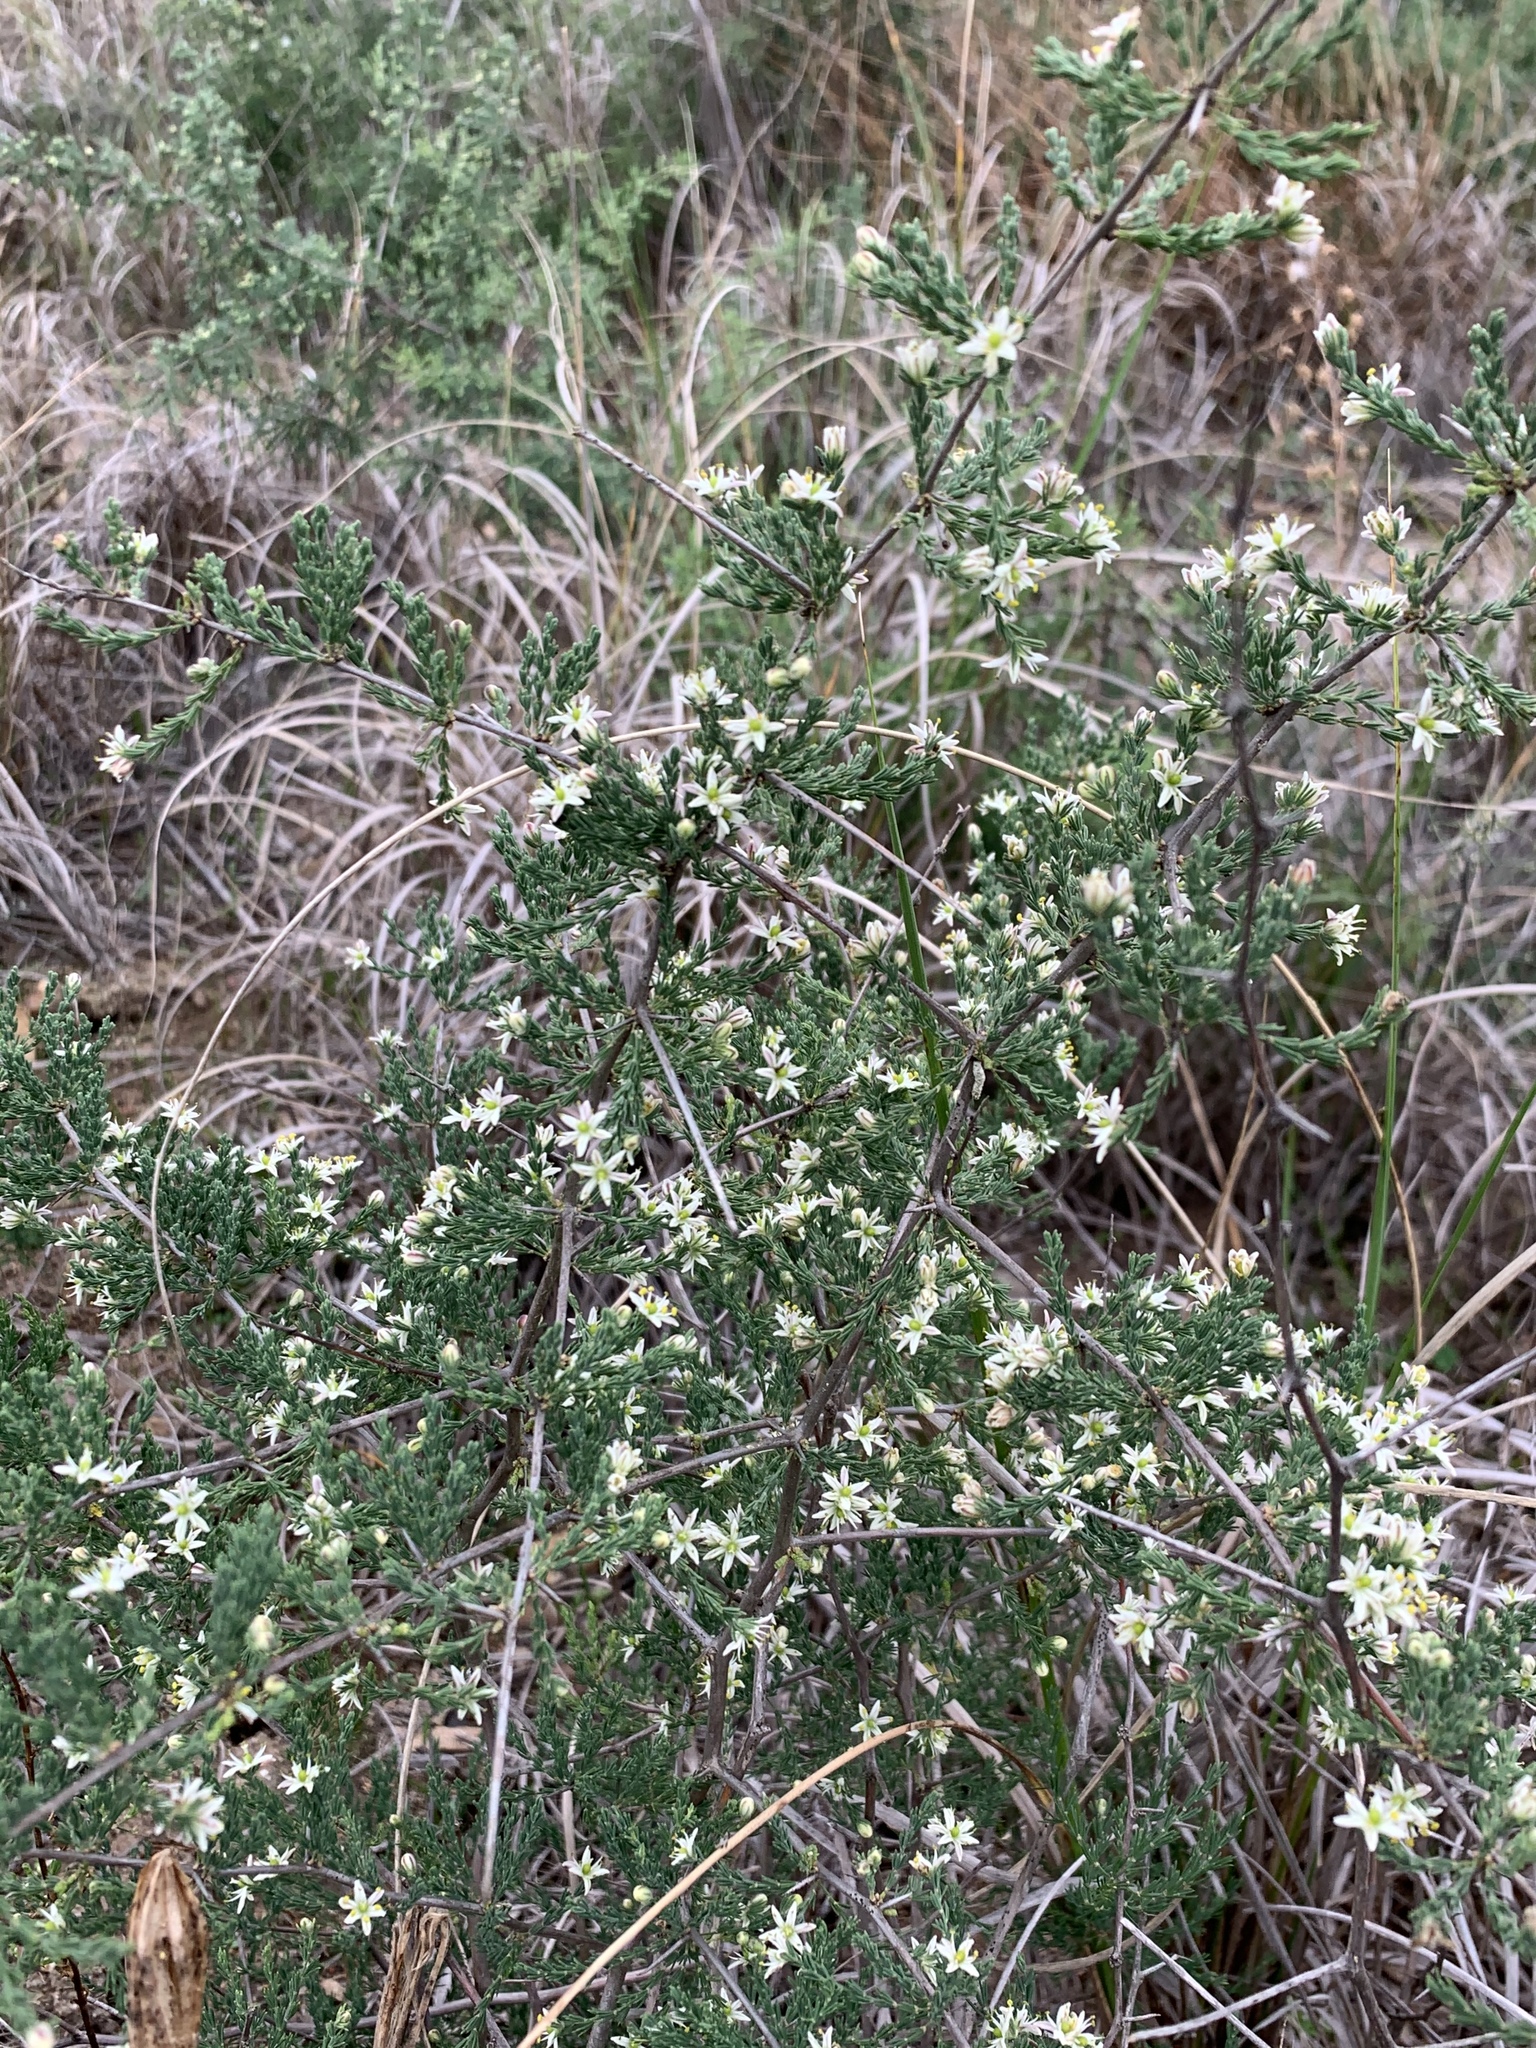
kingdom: Plantae
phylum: Tracheophyta
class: Liliopsida
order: Asparagales
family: Asparagaceae
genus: Asparagus
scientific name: Asparagus capensis
